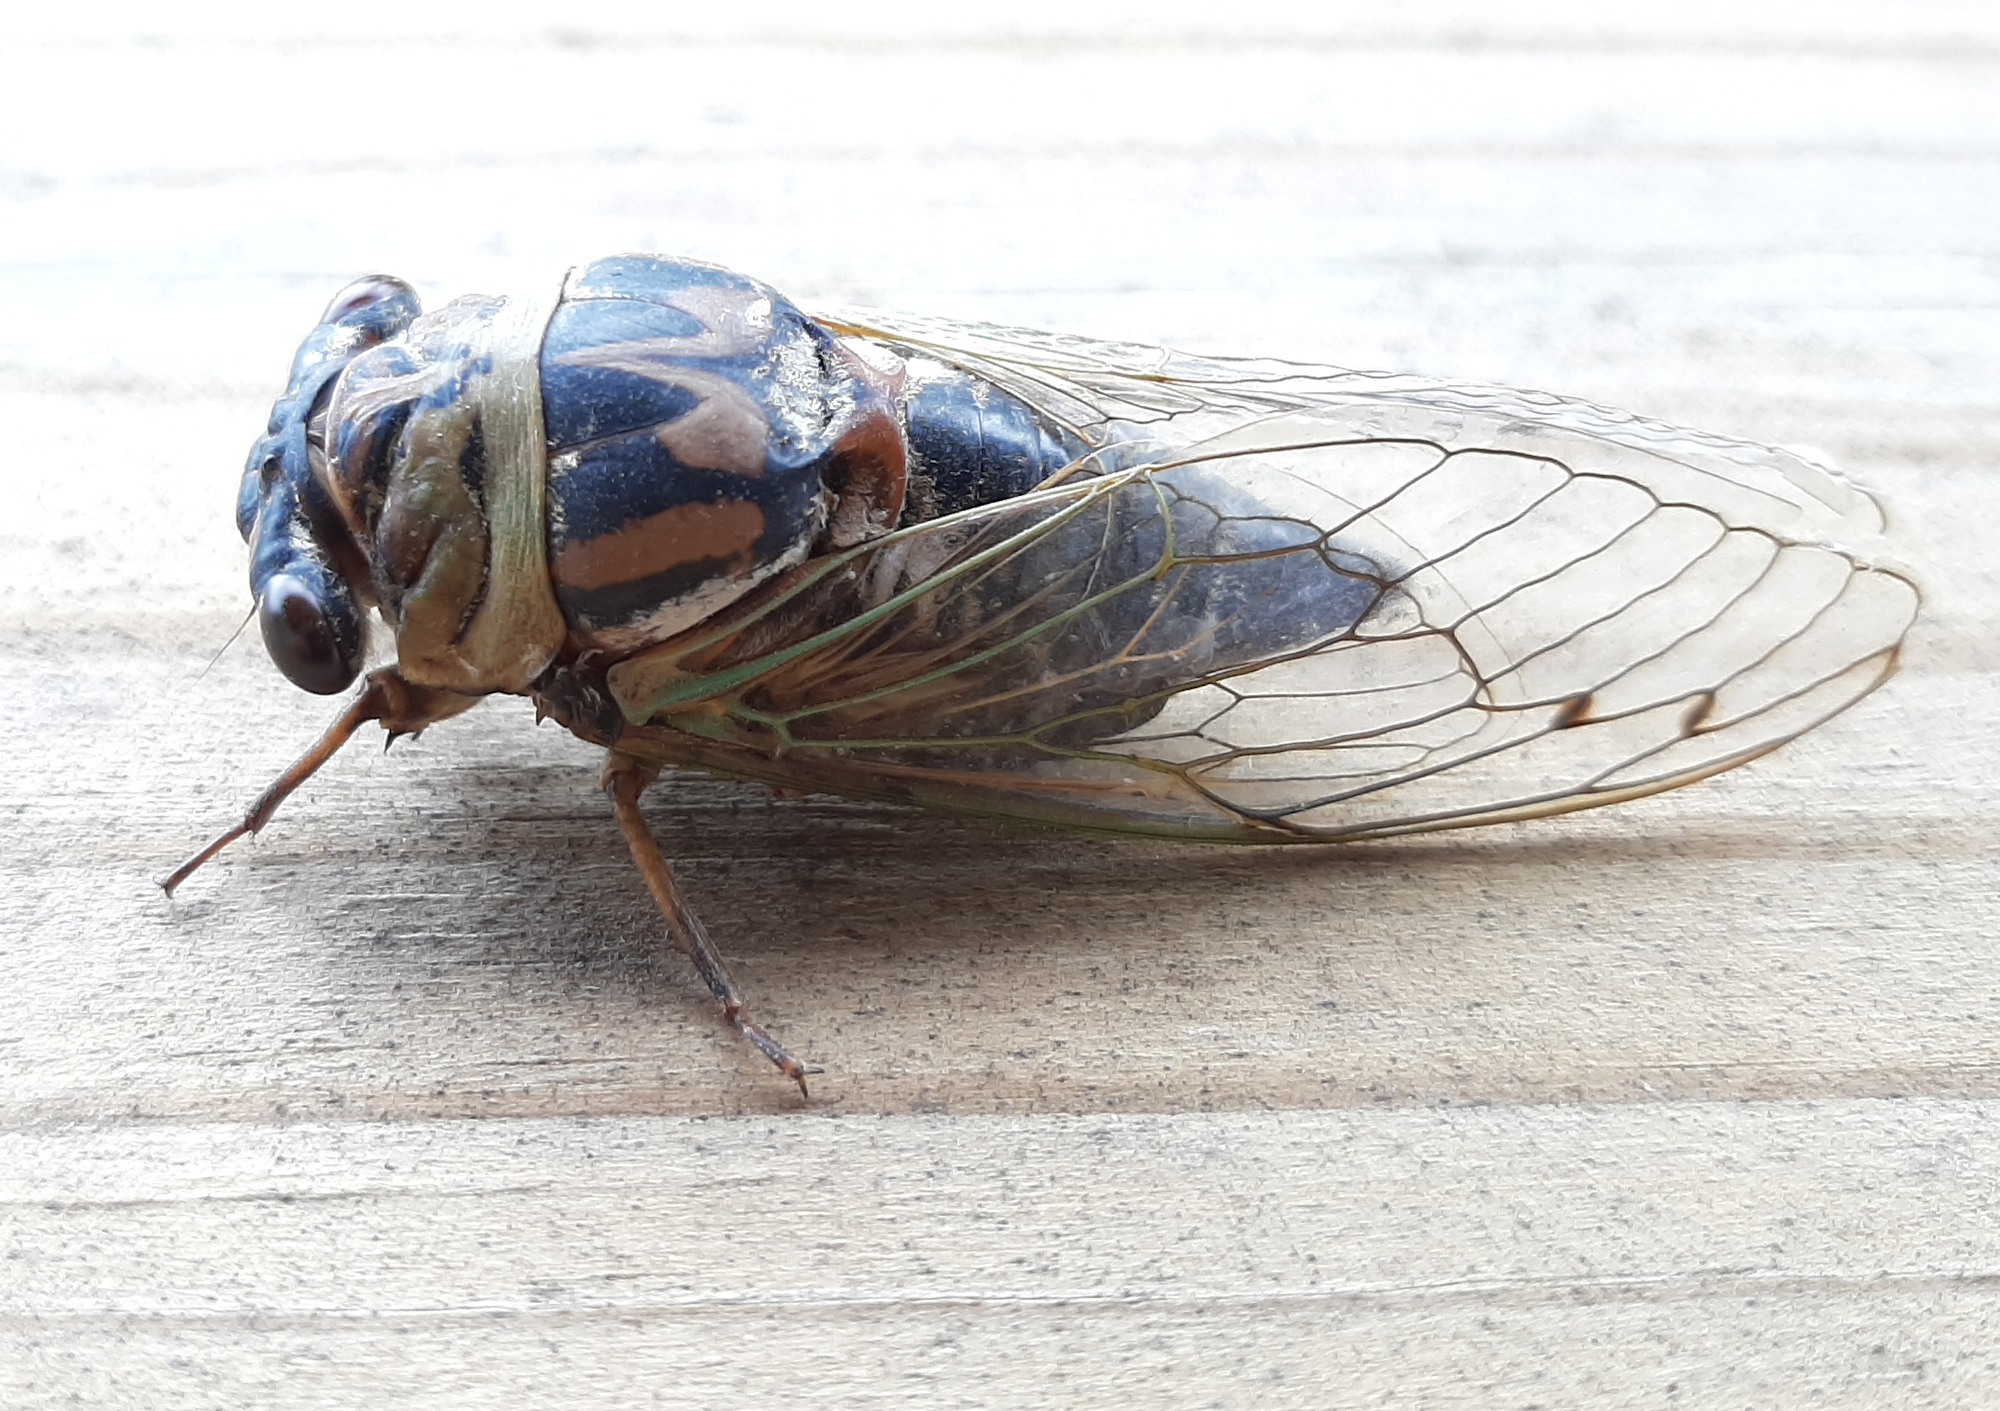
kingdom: Animalia
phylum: Arthropoda
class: Insecta
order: Hemiptera
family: Cicadidae
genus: Megatibicen
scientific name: Megatibicen resh
